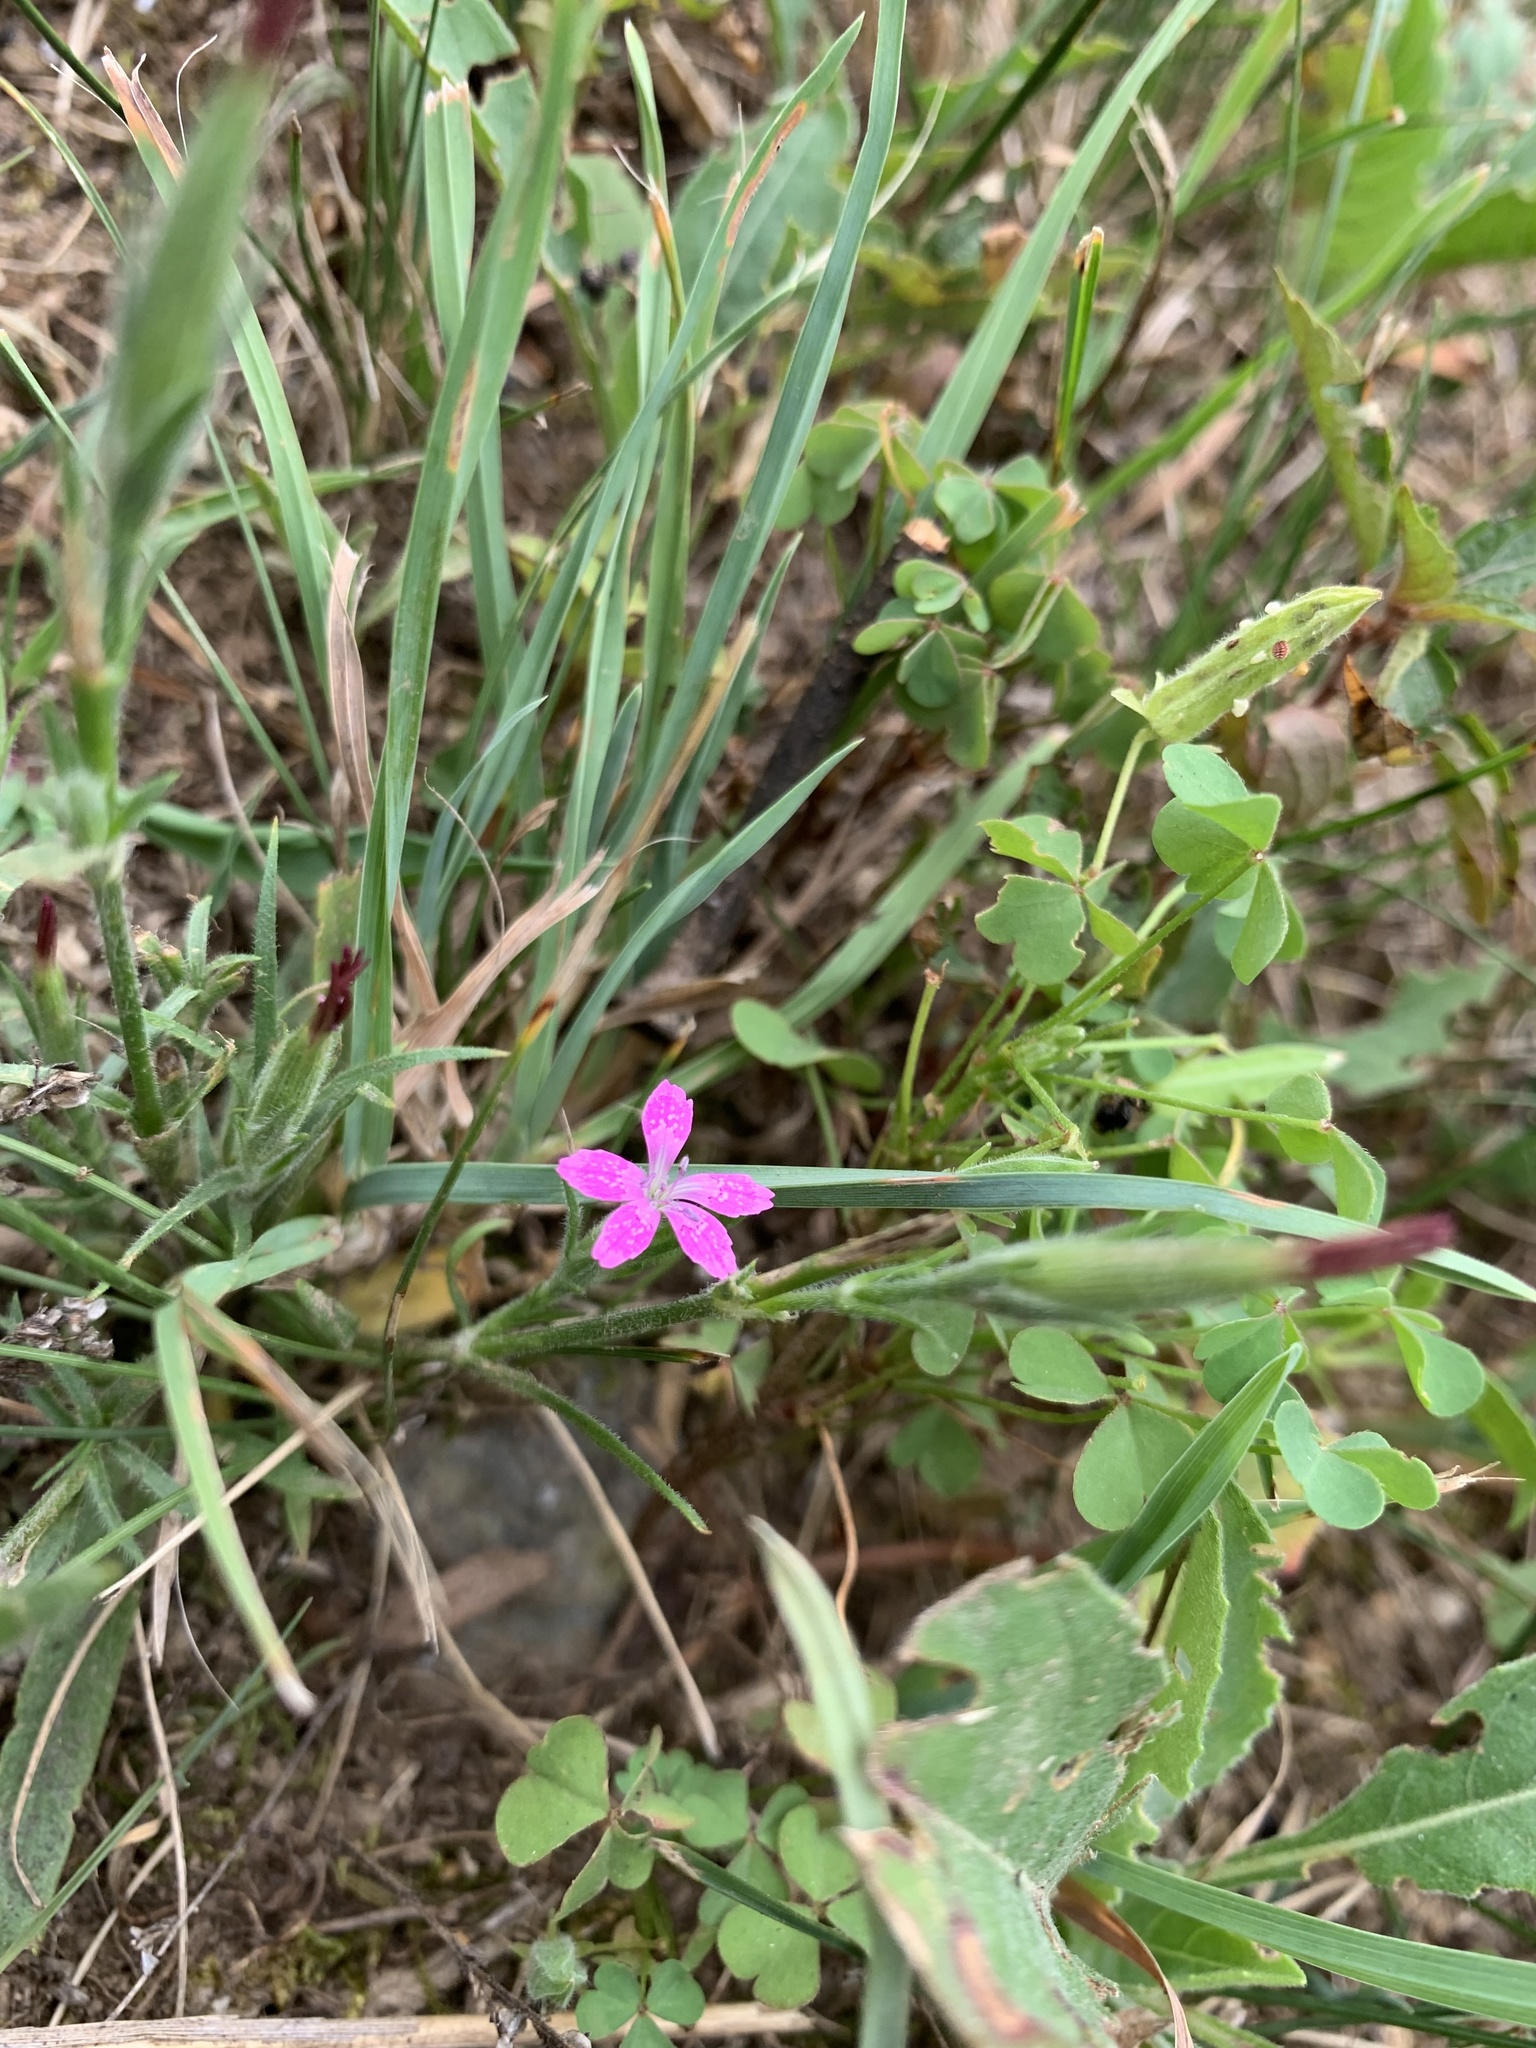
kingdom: Plantae
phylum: Tracheophyta
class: Magnoliopsida
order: Caryophyllales
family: Caryophyllaceae
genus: Dianthus
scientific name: Dianthus armeria
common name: Deptford pink
